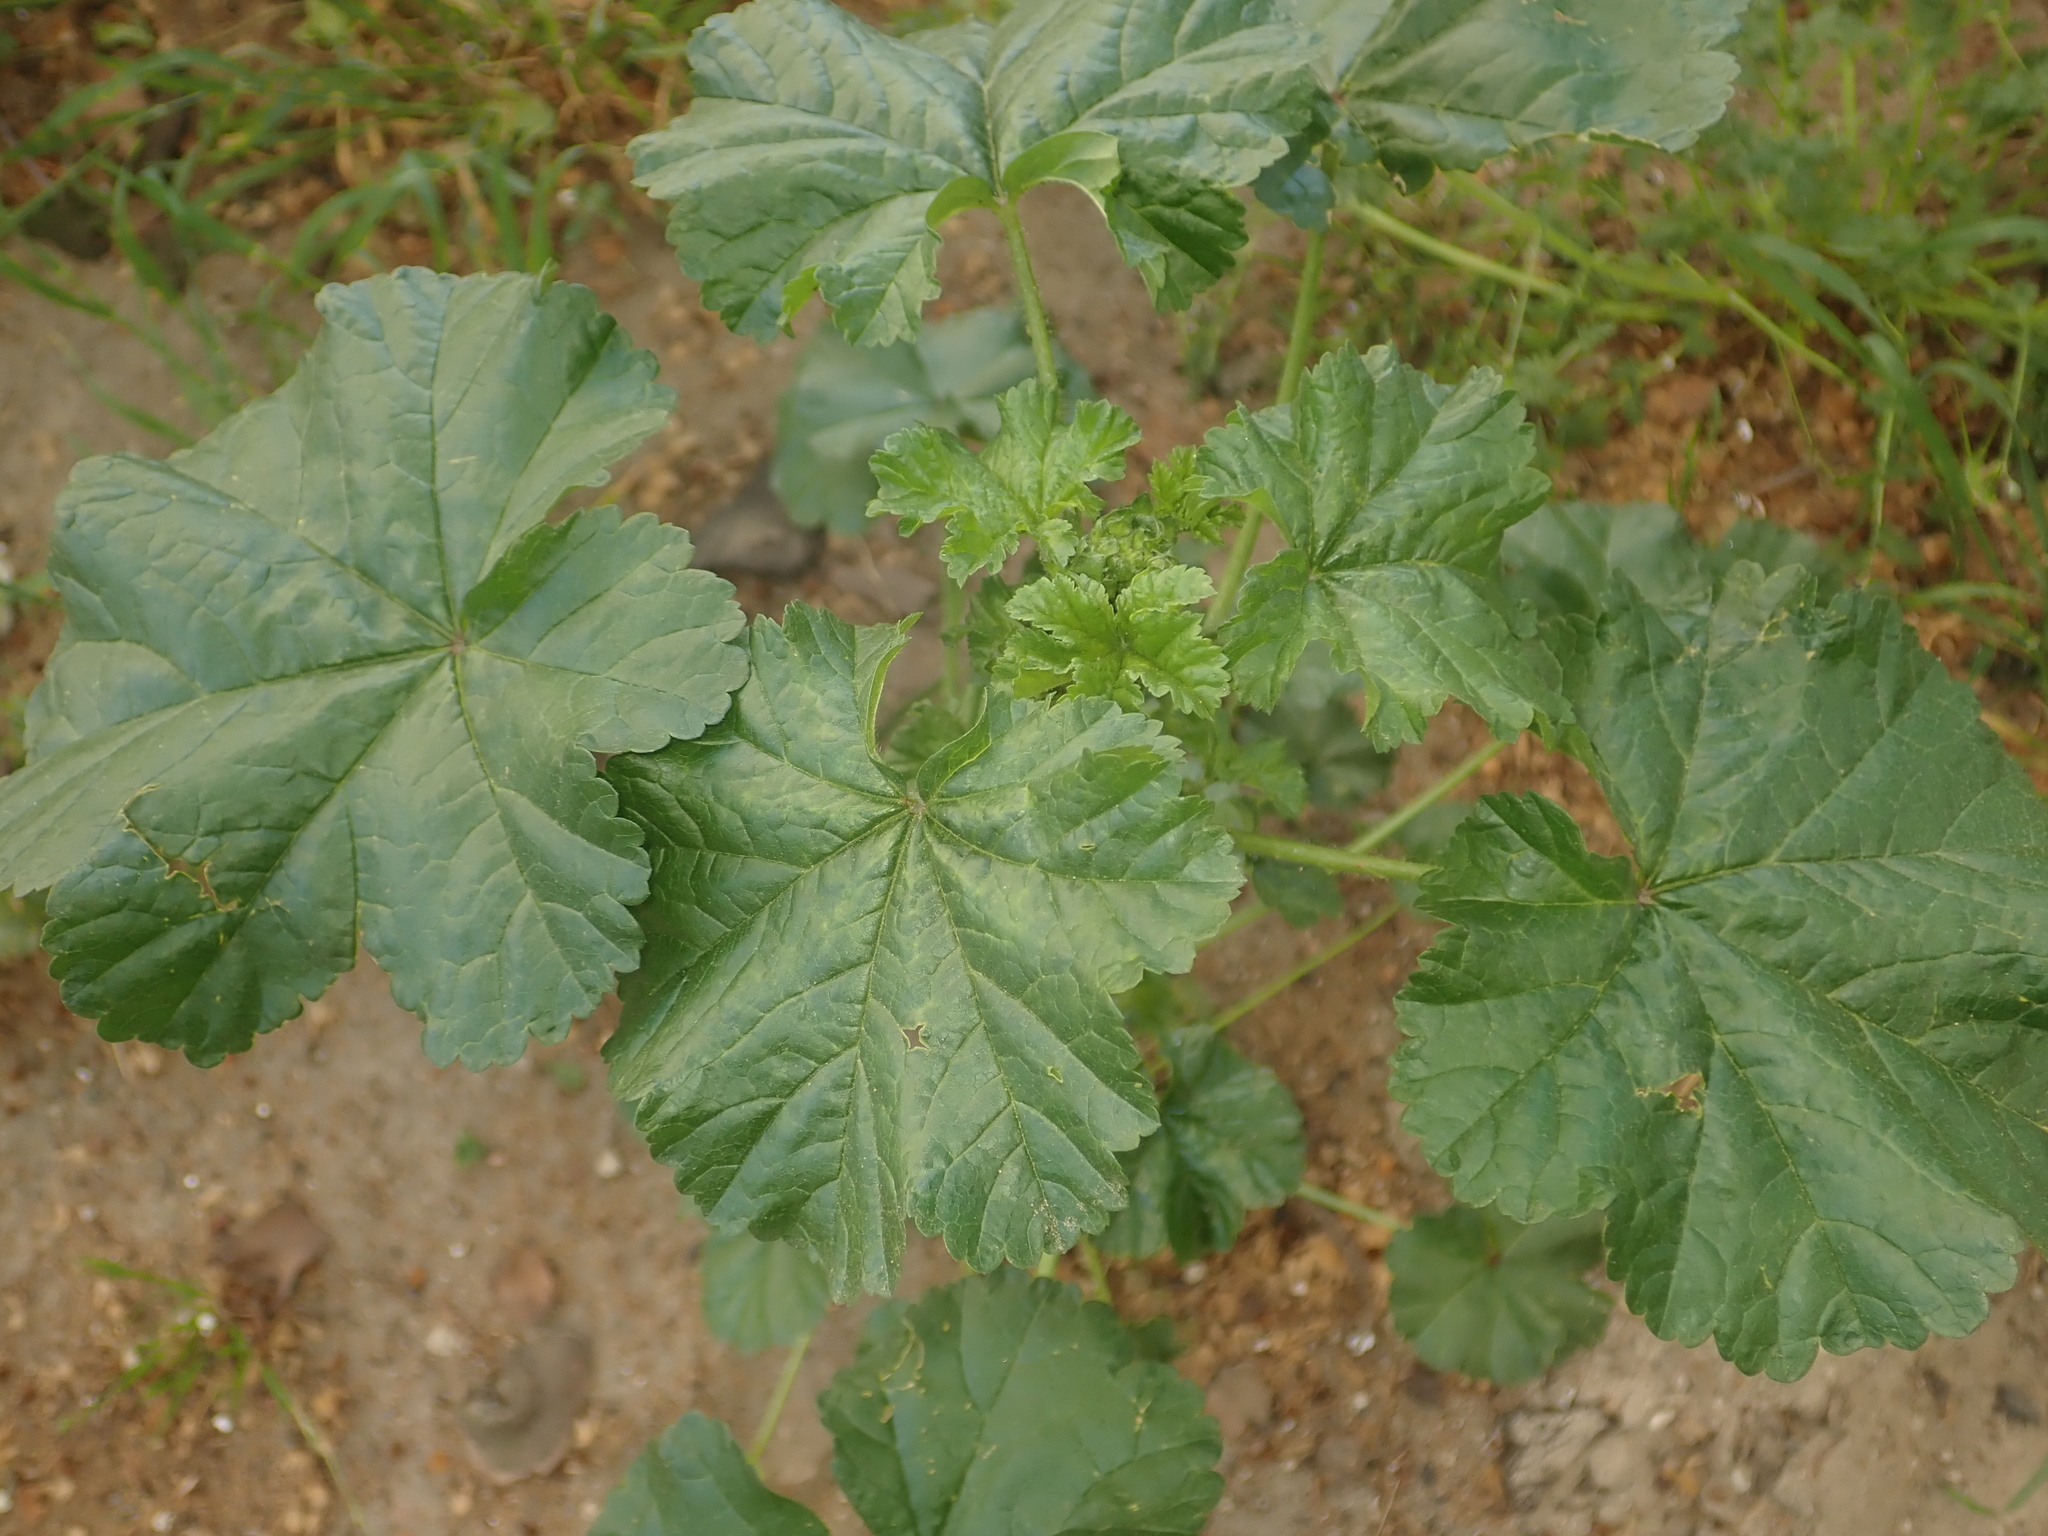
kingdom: Plantae
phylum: Tracheophyta
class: Magnoliopsida
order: Malvales
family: Malvaceae
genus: Malva
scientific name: Malva sylvestris
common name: Common mallow
